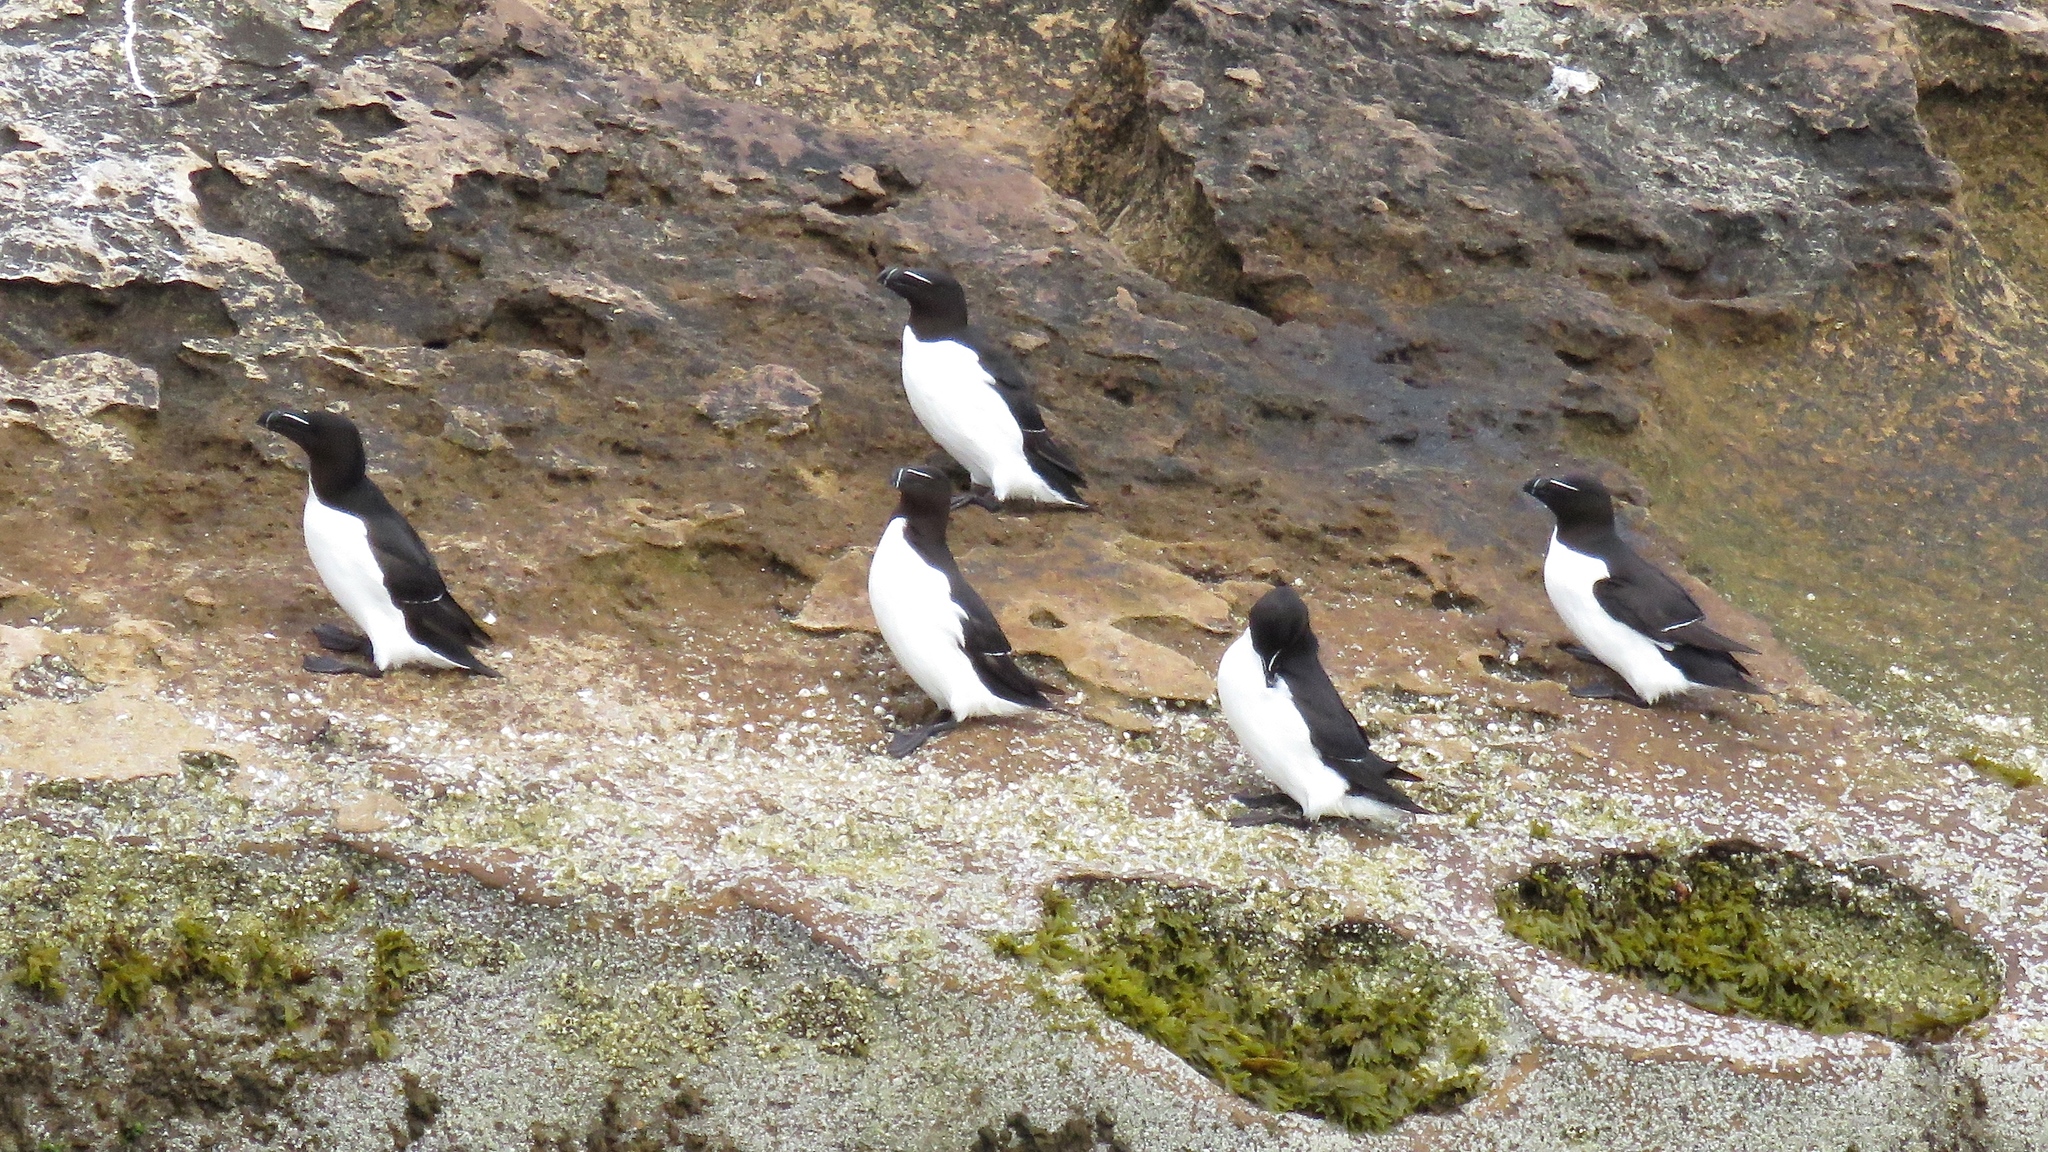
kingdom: Animalia
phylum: Chordata
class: Aves
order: Charadriiformes
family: Alcidae
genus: Alca
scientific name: Alca torda
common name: Razorbill
